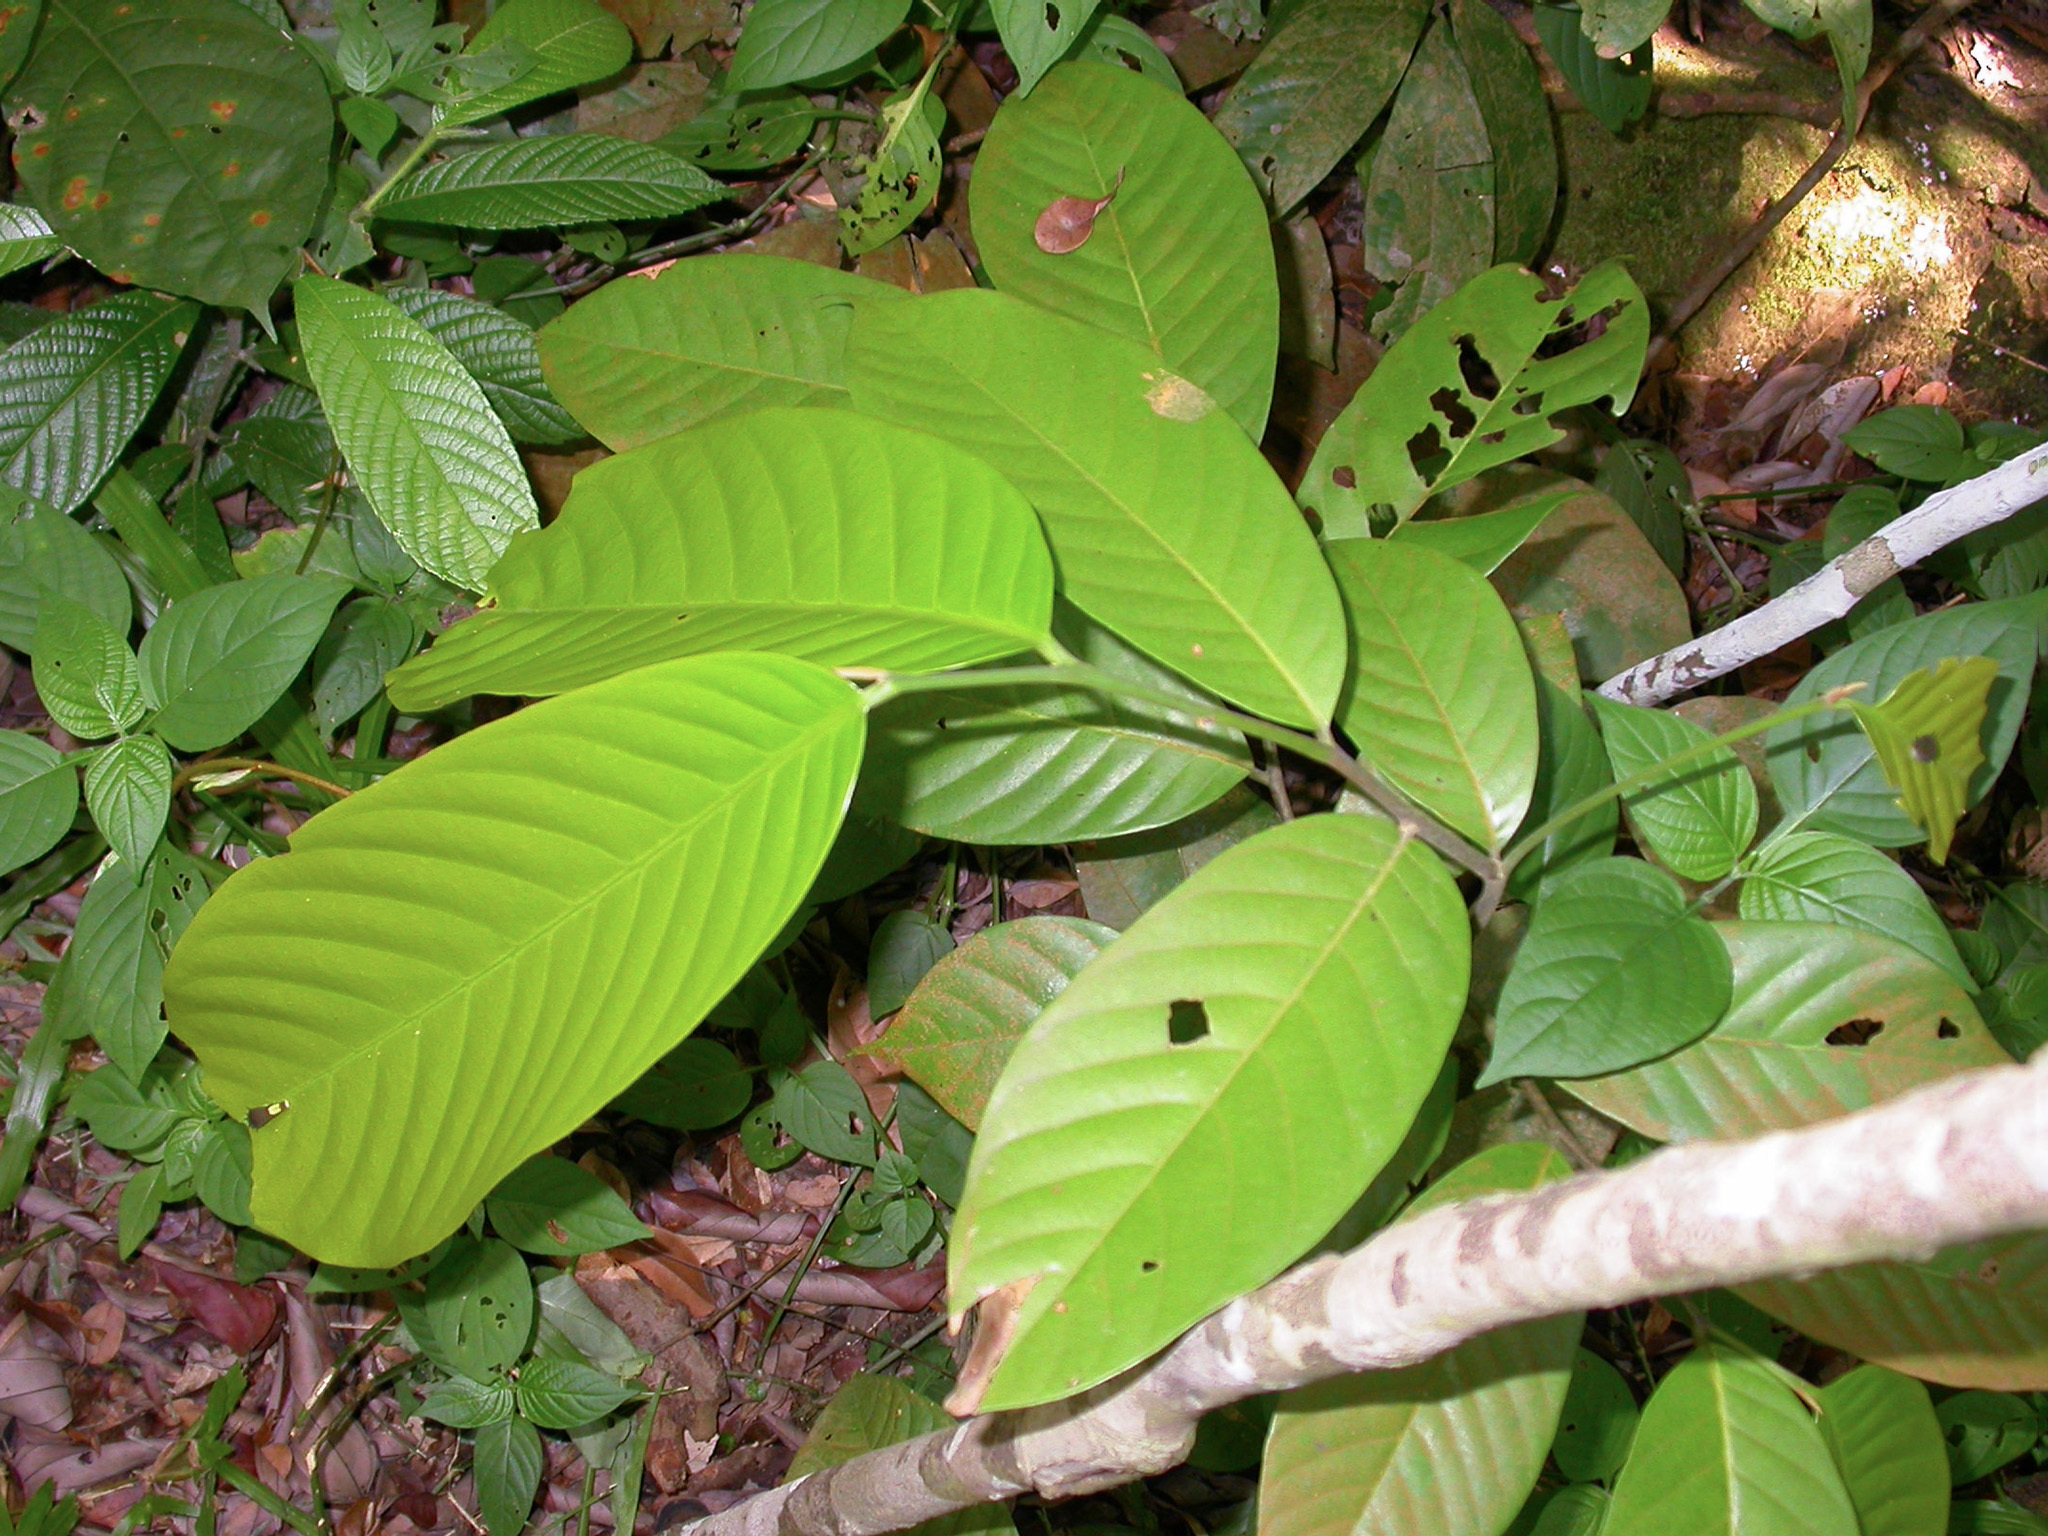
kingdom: Plantae
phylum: Tracheophyta
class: Magnoliopsida
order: Magnoliales
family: Annonaceae
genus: Uvaria
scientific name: Uvaria grandiflora
